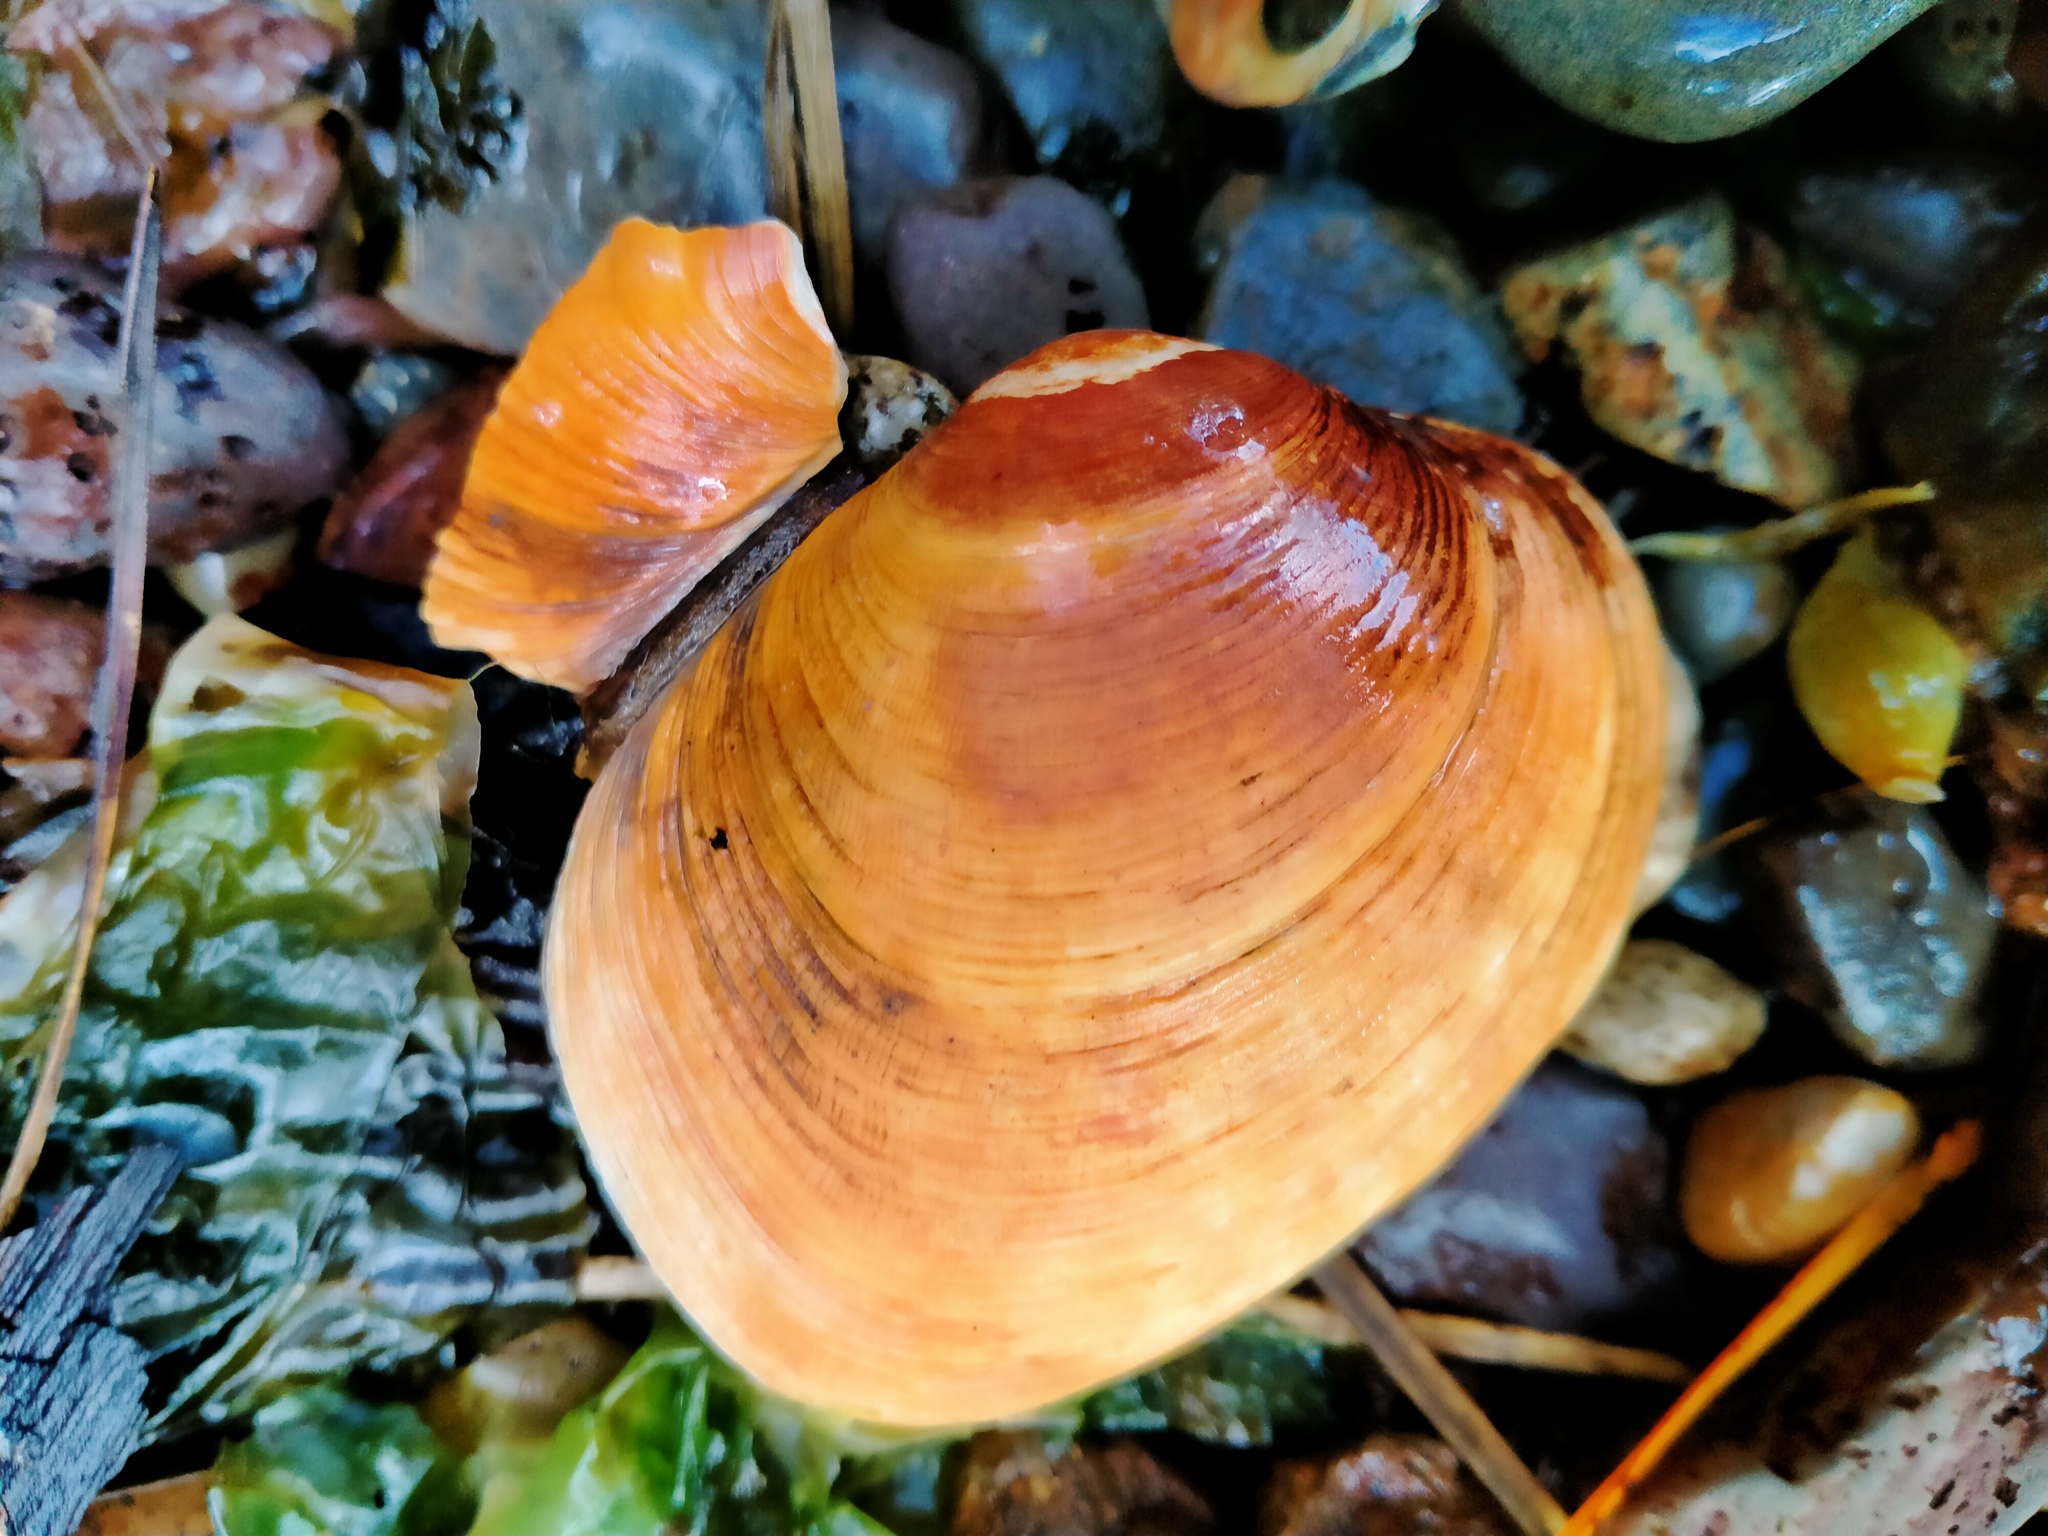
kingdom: Animalia
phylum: Mollusca
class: Bivalvia
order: Venerida
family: Veneridae
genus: Venerupis
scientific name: Venerupis largillierti
